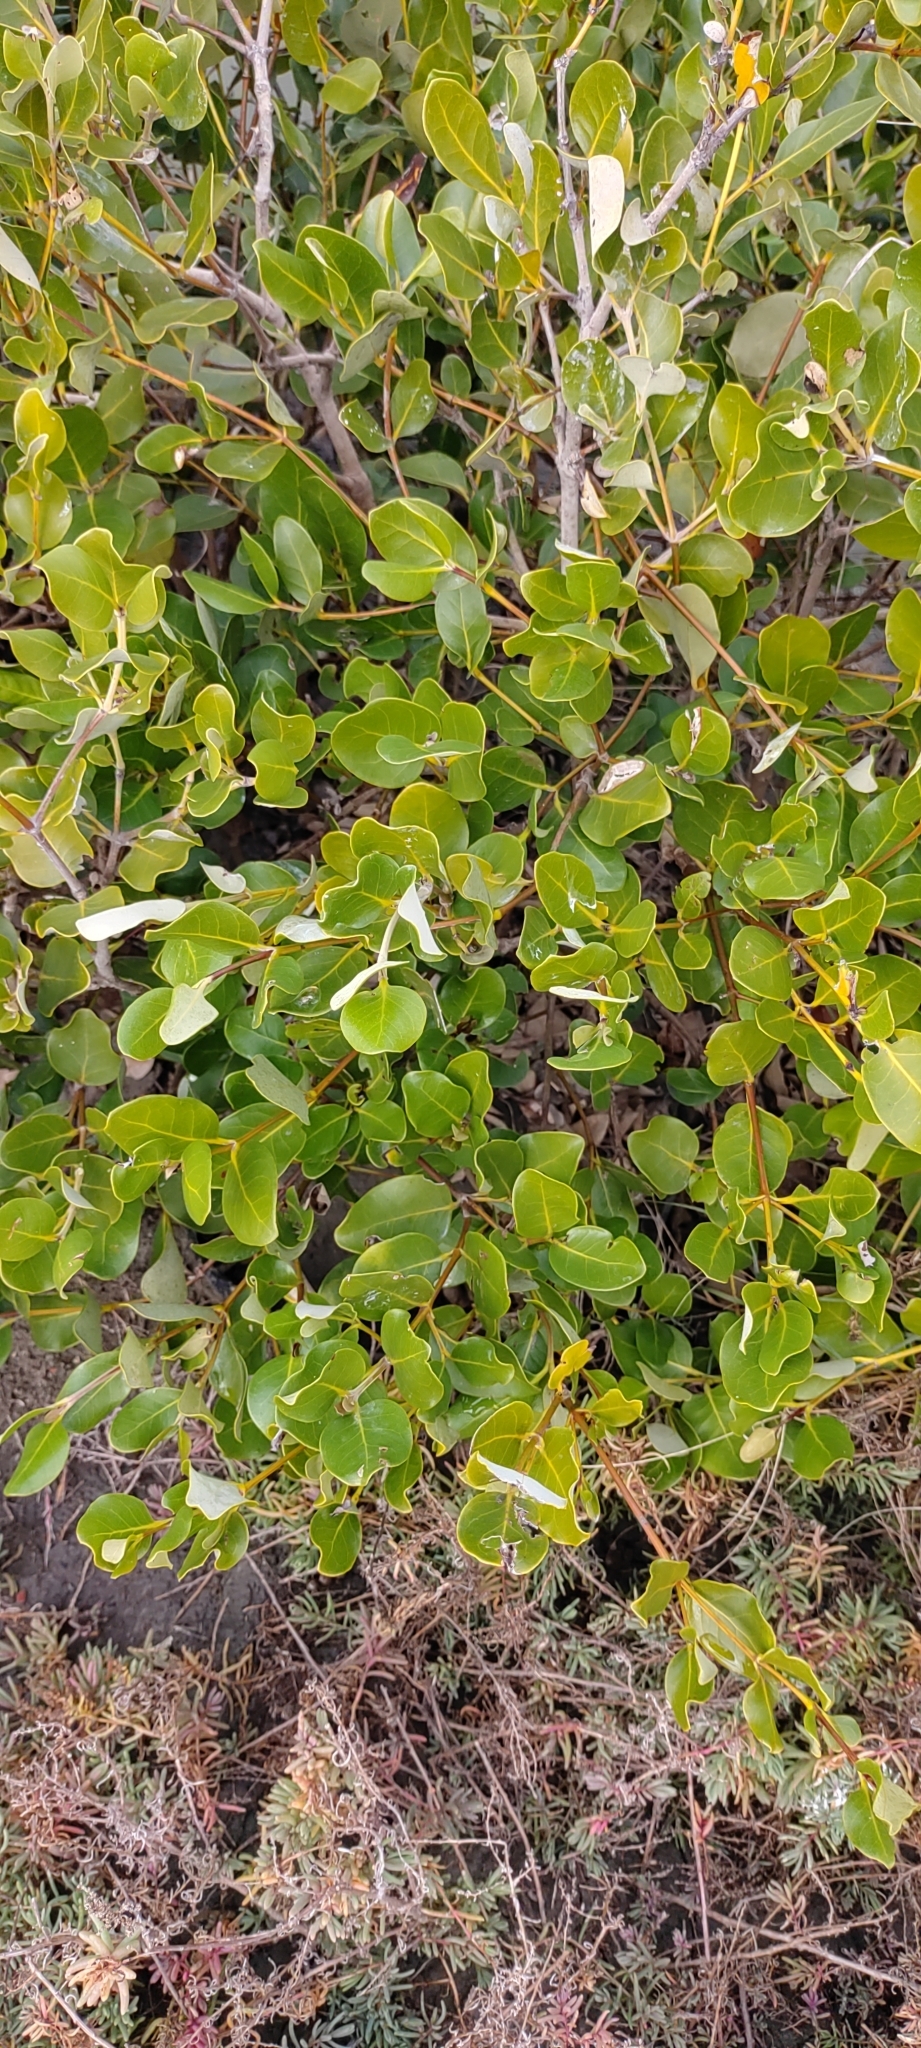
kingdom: Plantae
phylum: Tracheophyta
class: Magnoliopsida
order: Lamiales
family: Acanthaceae
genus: Avicennia
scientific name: Avicennia marina
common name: Gray mangrove
